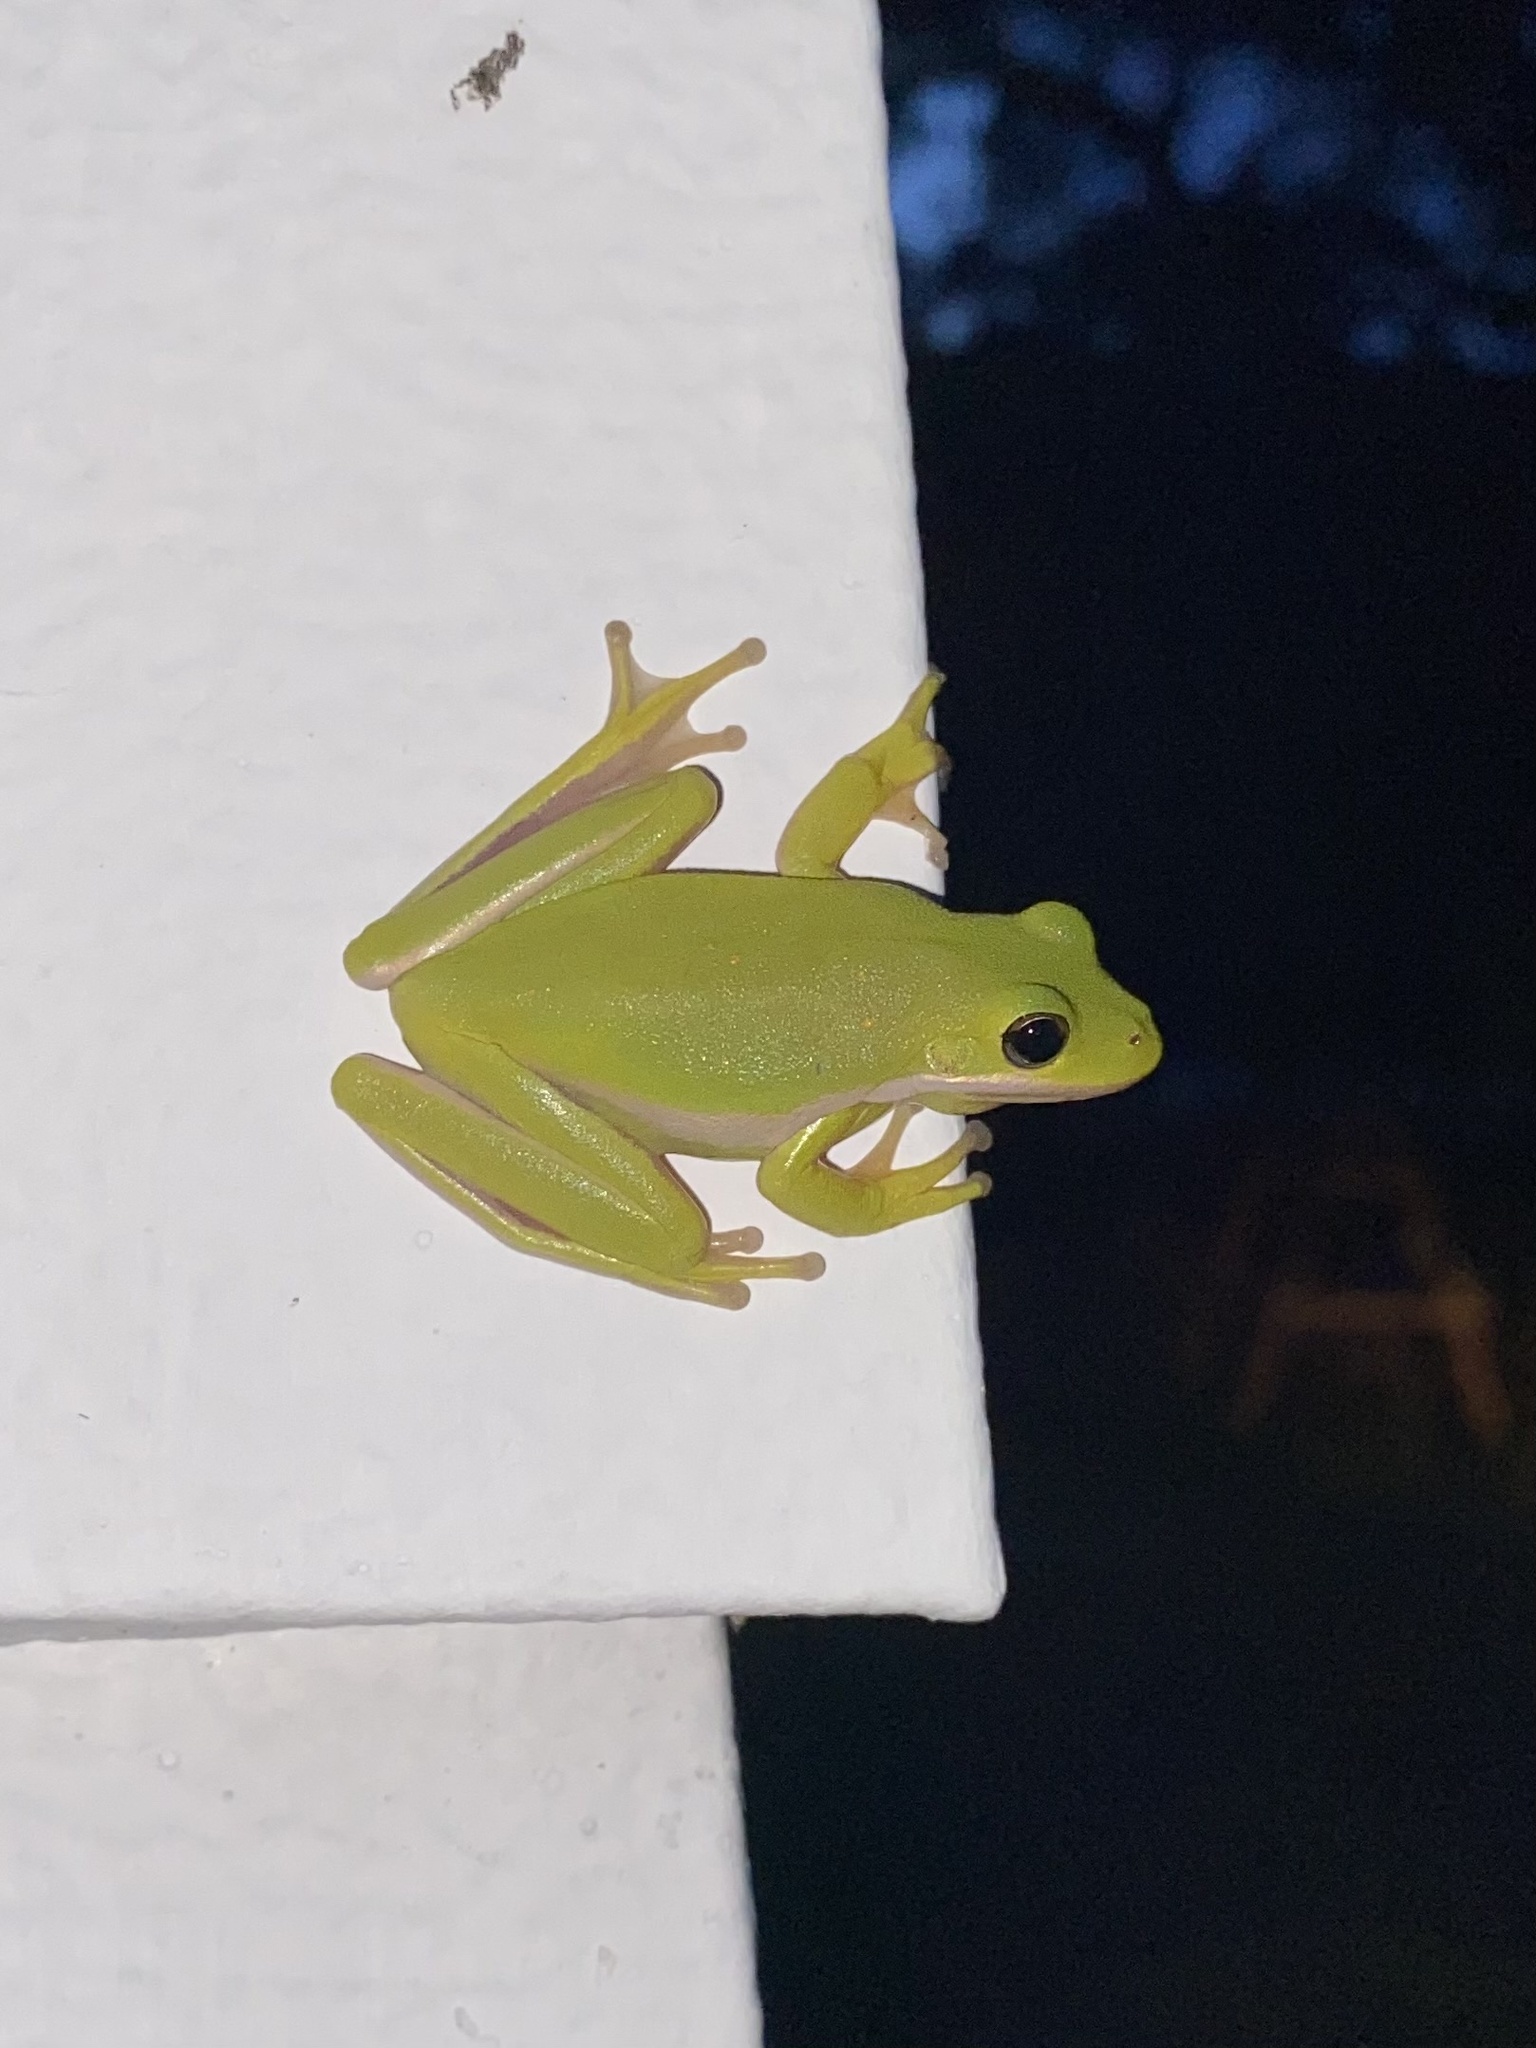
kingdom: Animalia
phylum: Chordata
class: Amphibia
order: Anura
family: Hylidae
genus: Dryophytes
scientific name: Dryophytes cinereus
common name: Green treefrog
